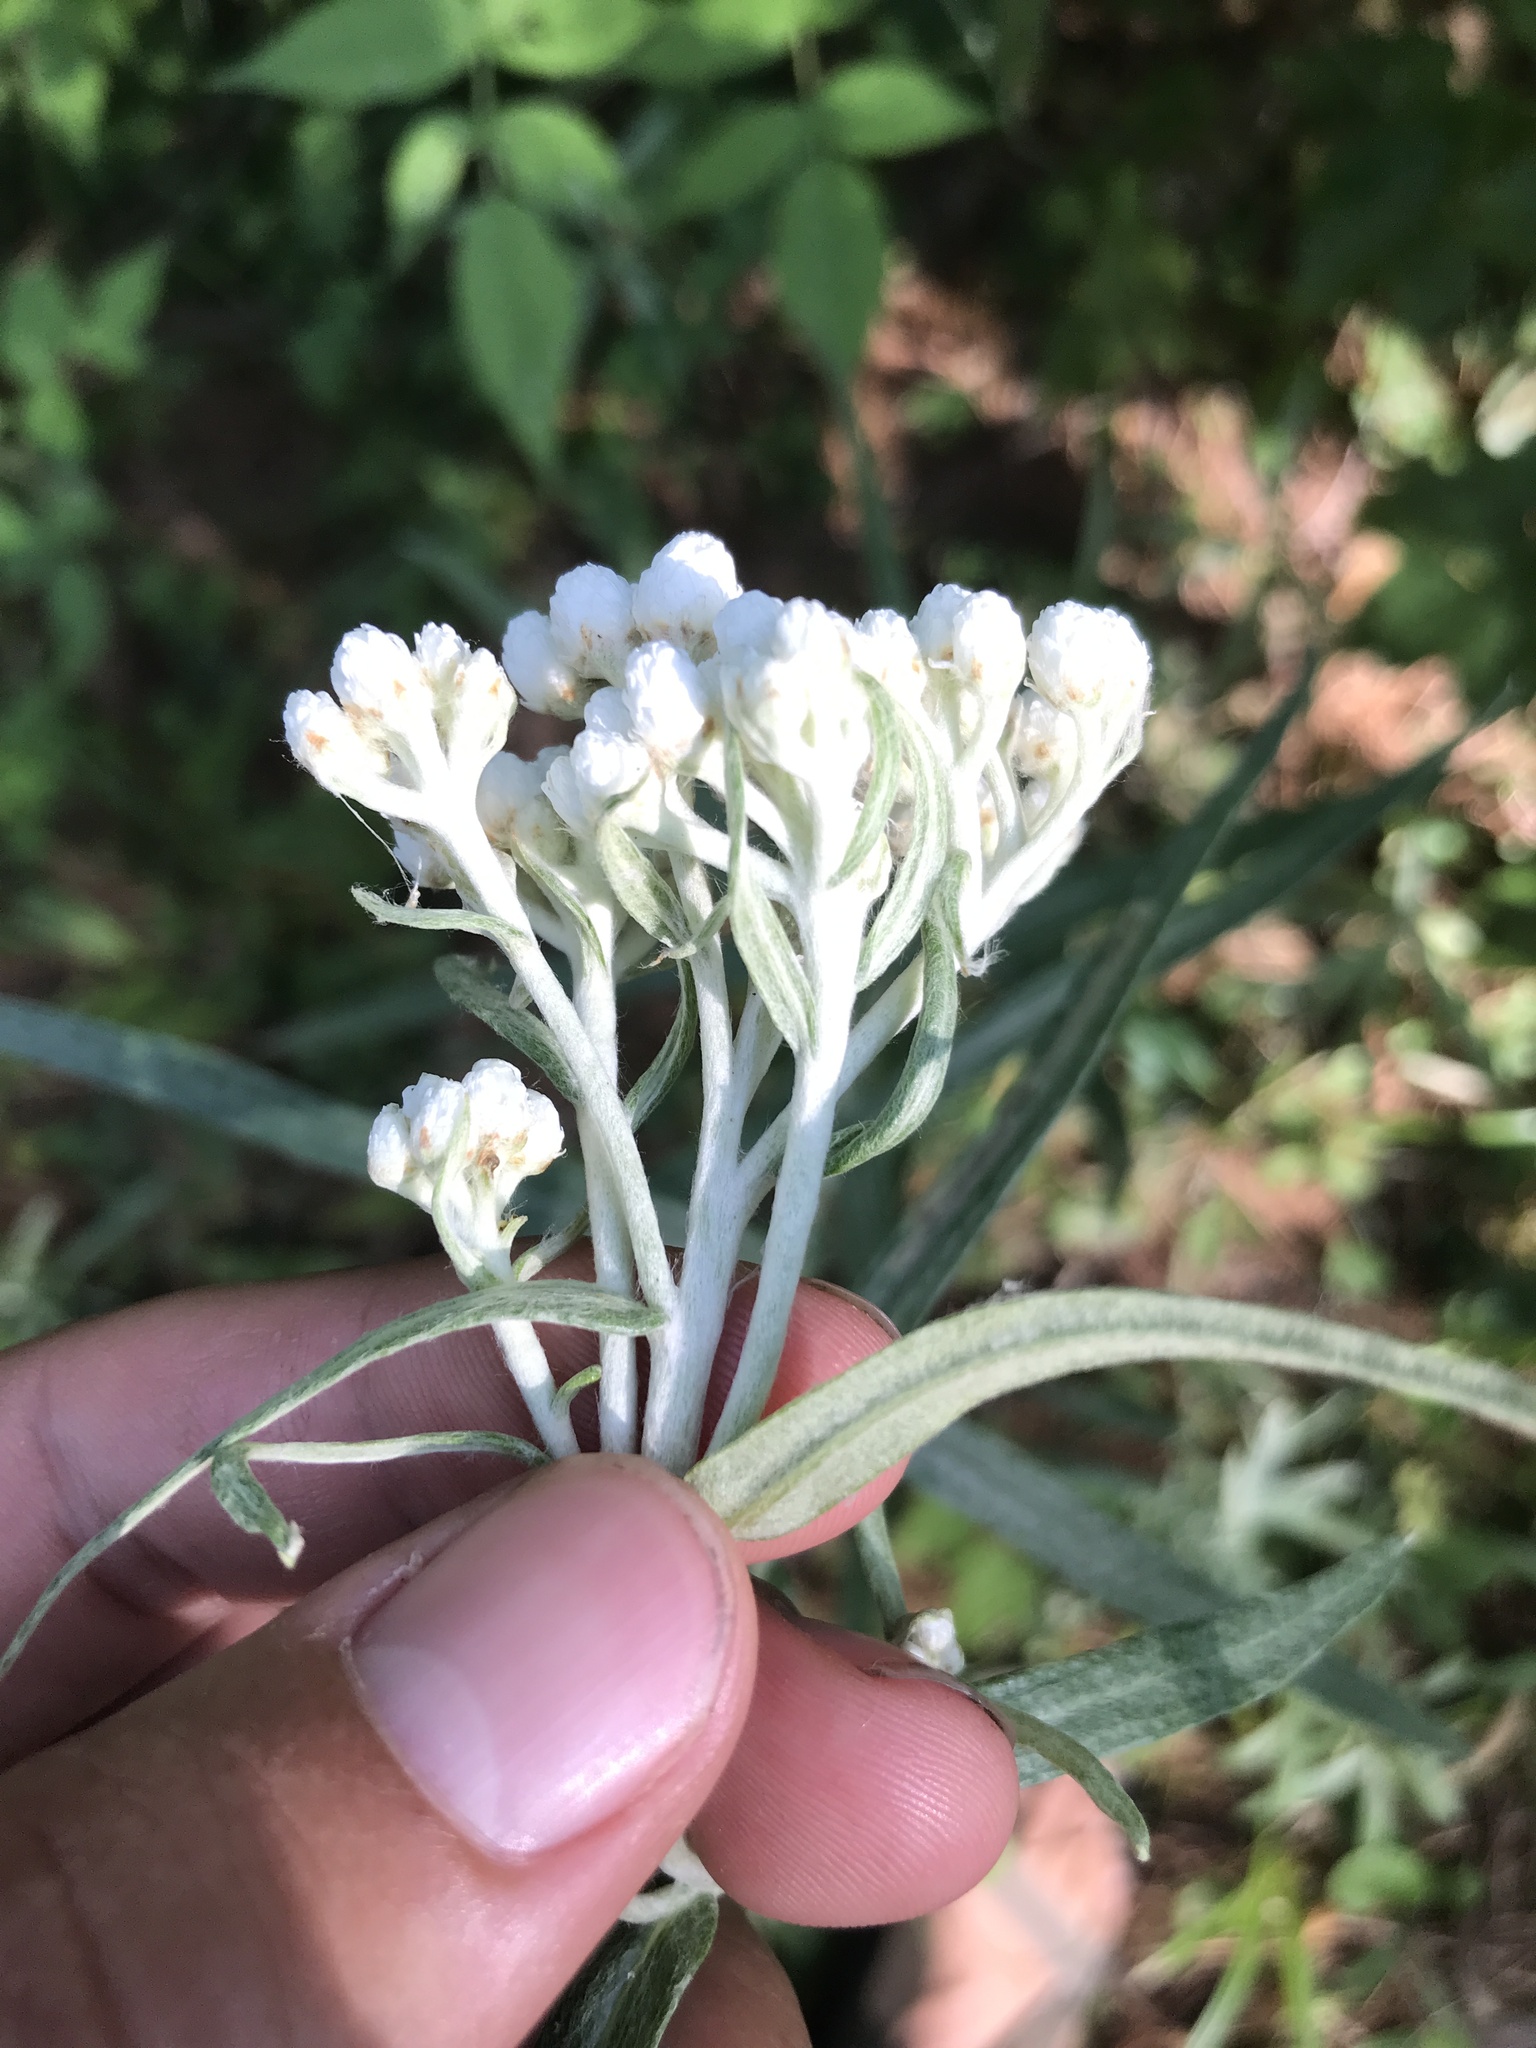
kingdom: Plantae
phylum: Tracheophyta
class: Magnoliopsida
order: Asterales
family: Asteraceae
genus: Anaphalis
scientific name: Anaphalis margaritacea
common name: Pearly everlasting
